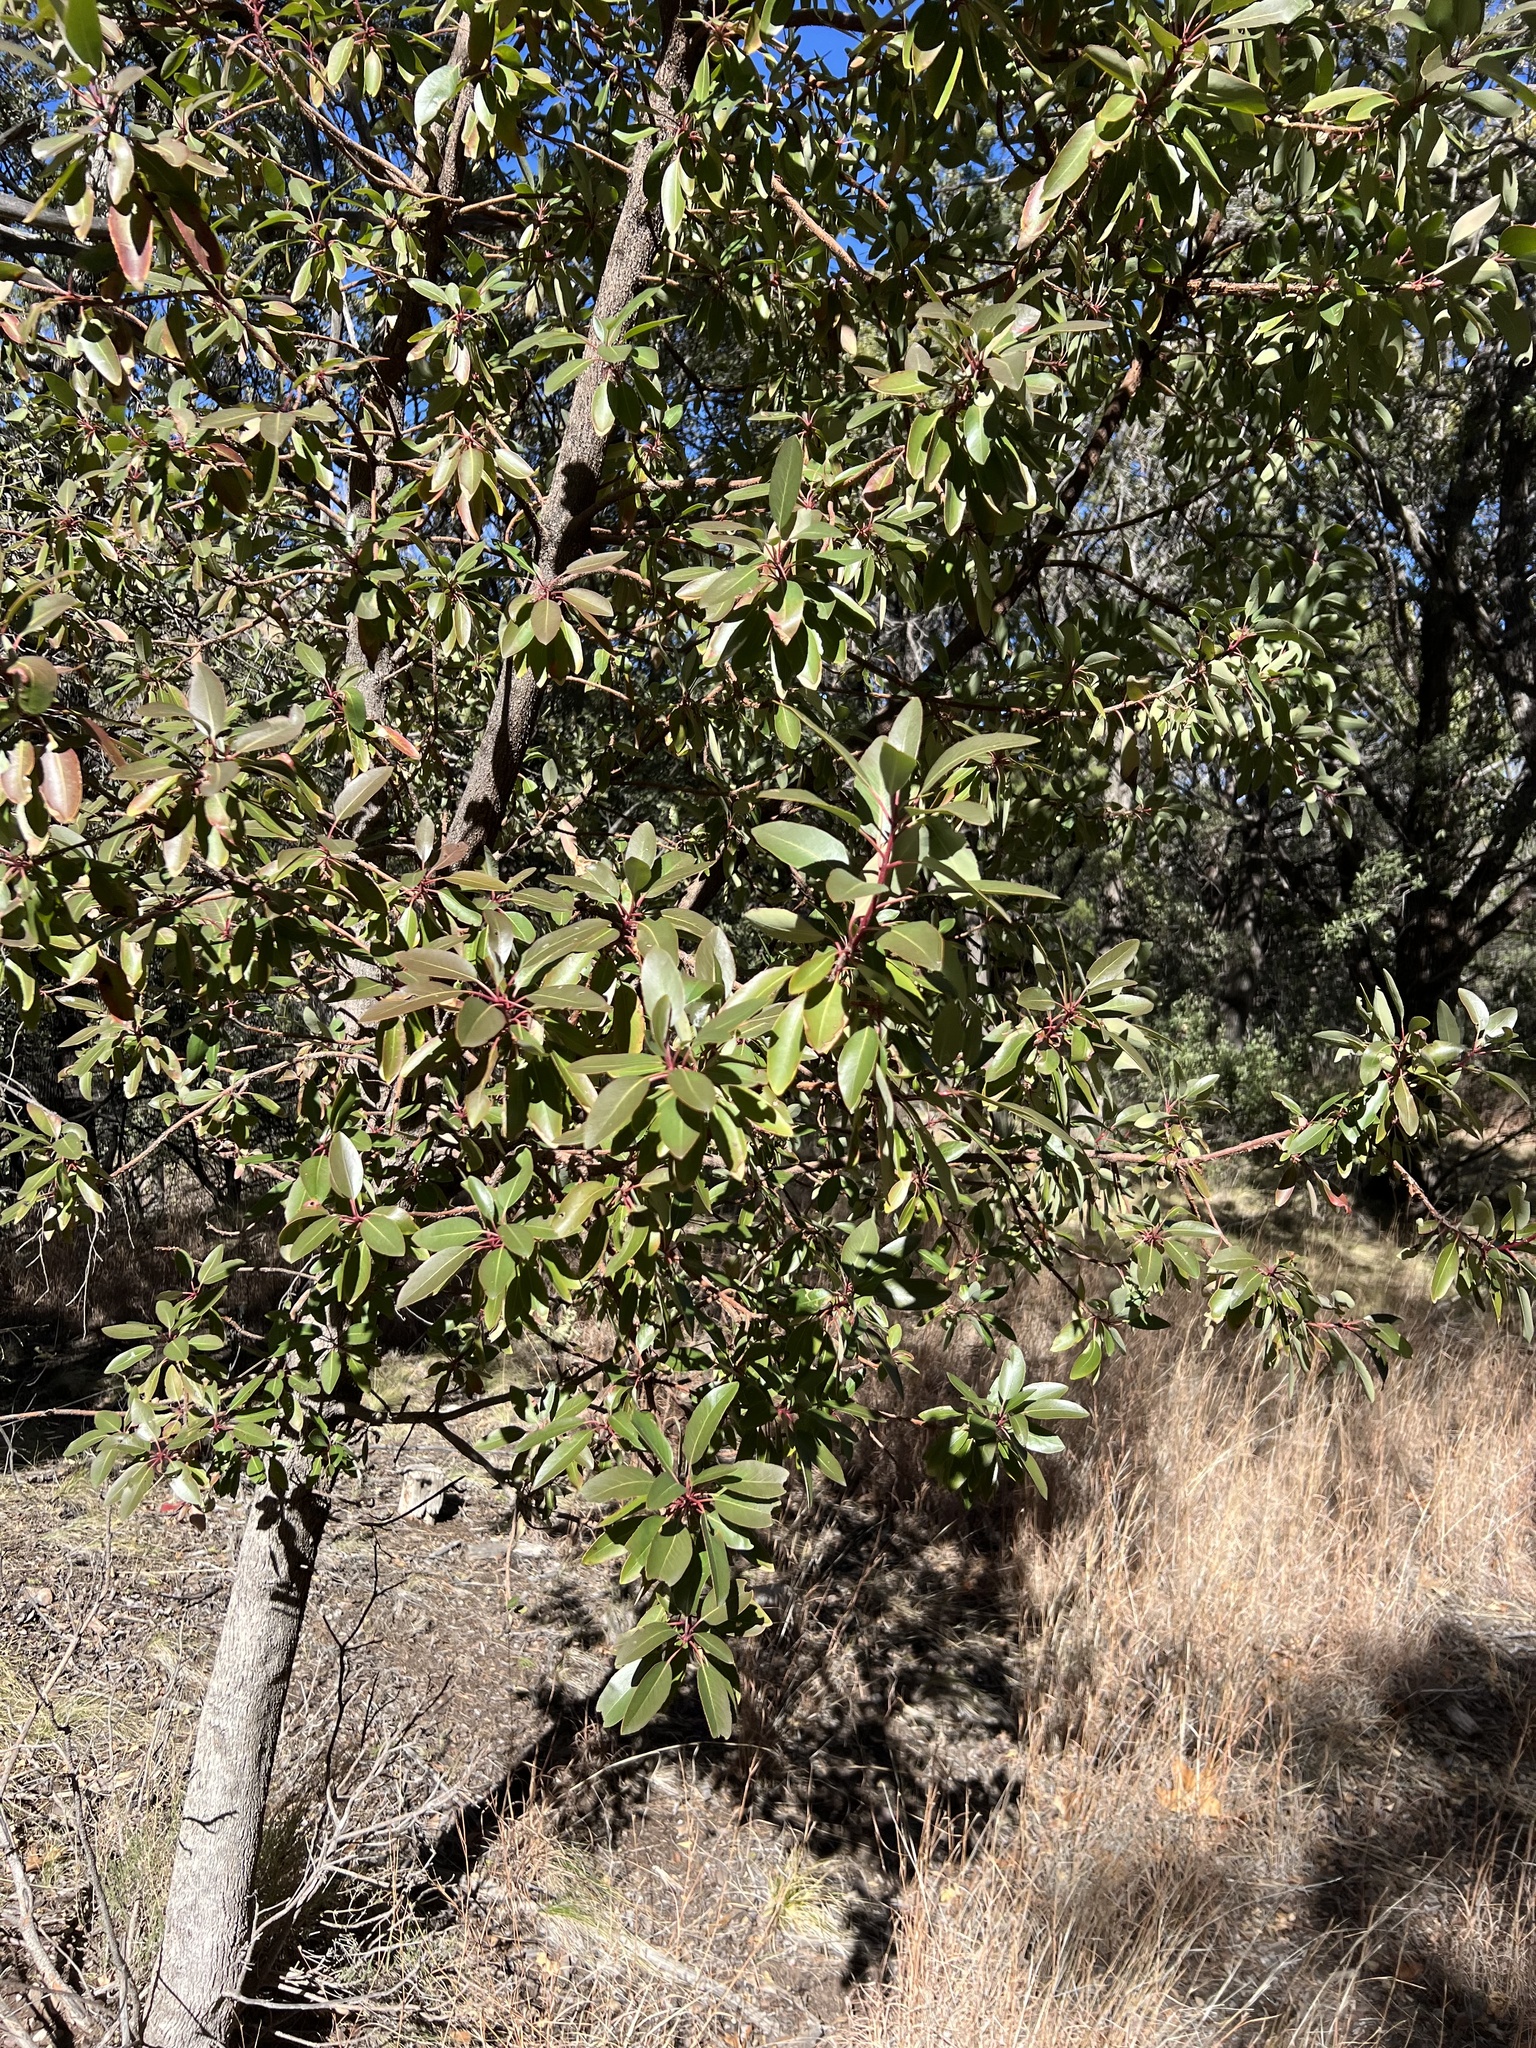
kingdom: Plantae
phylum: Tracheophyta
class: Magnoliopsida
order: Ericales
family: Ericaceae
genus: Arbutus
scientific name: Arbutus arizonica
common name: Arizona madrone
